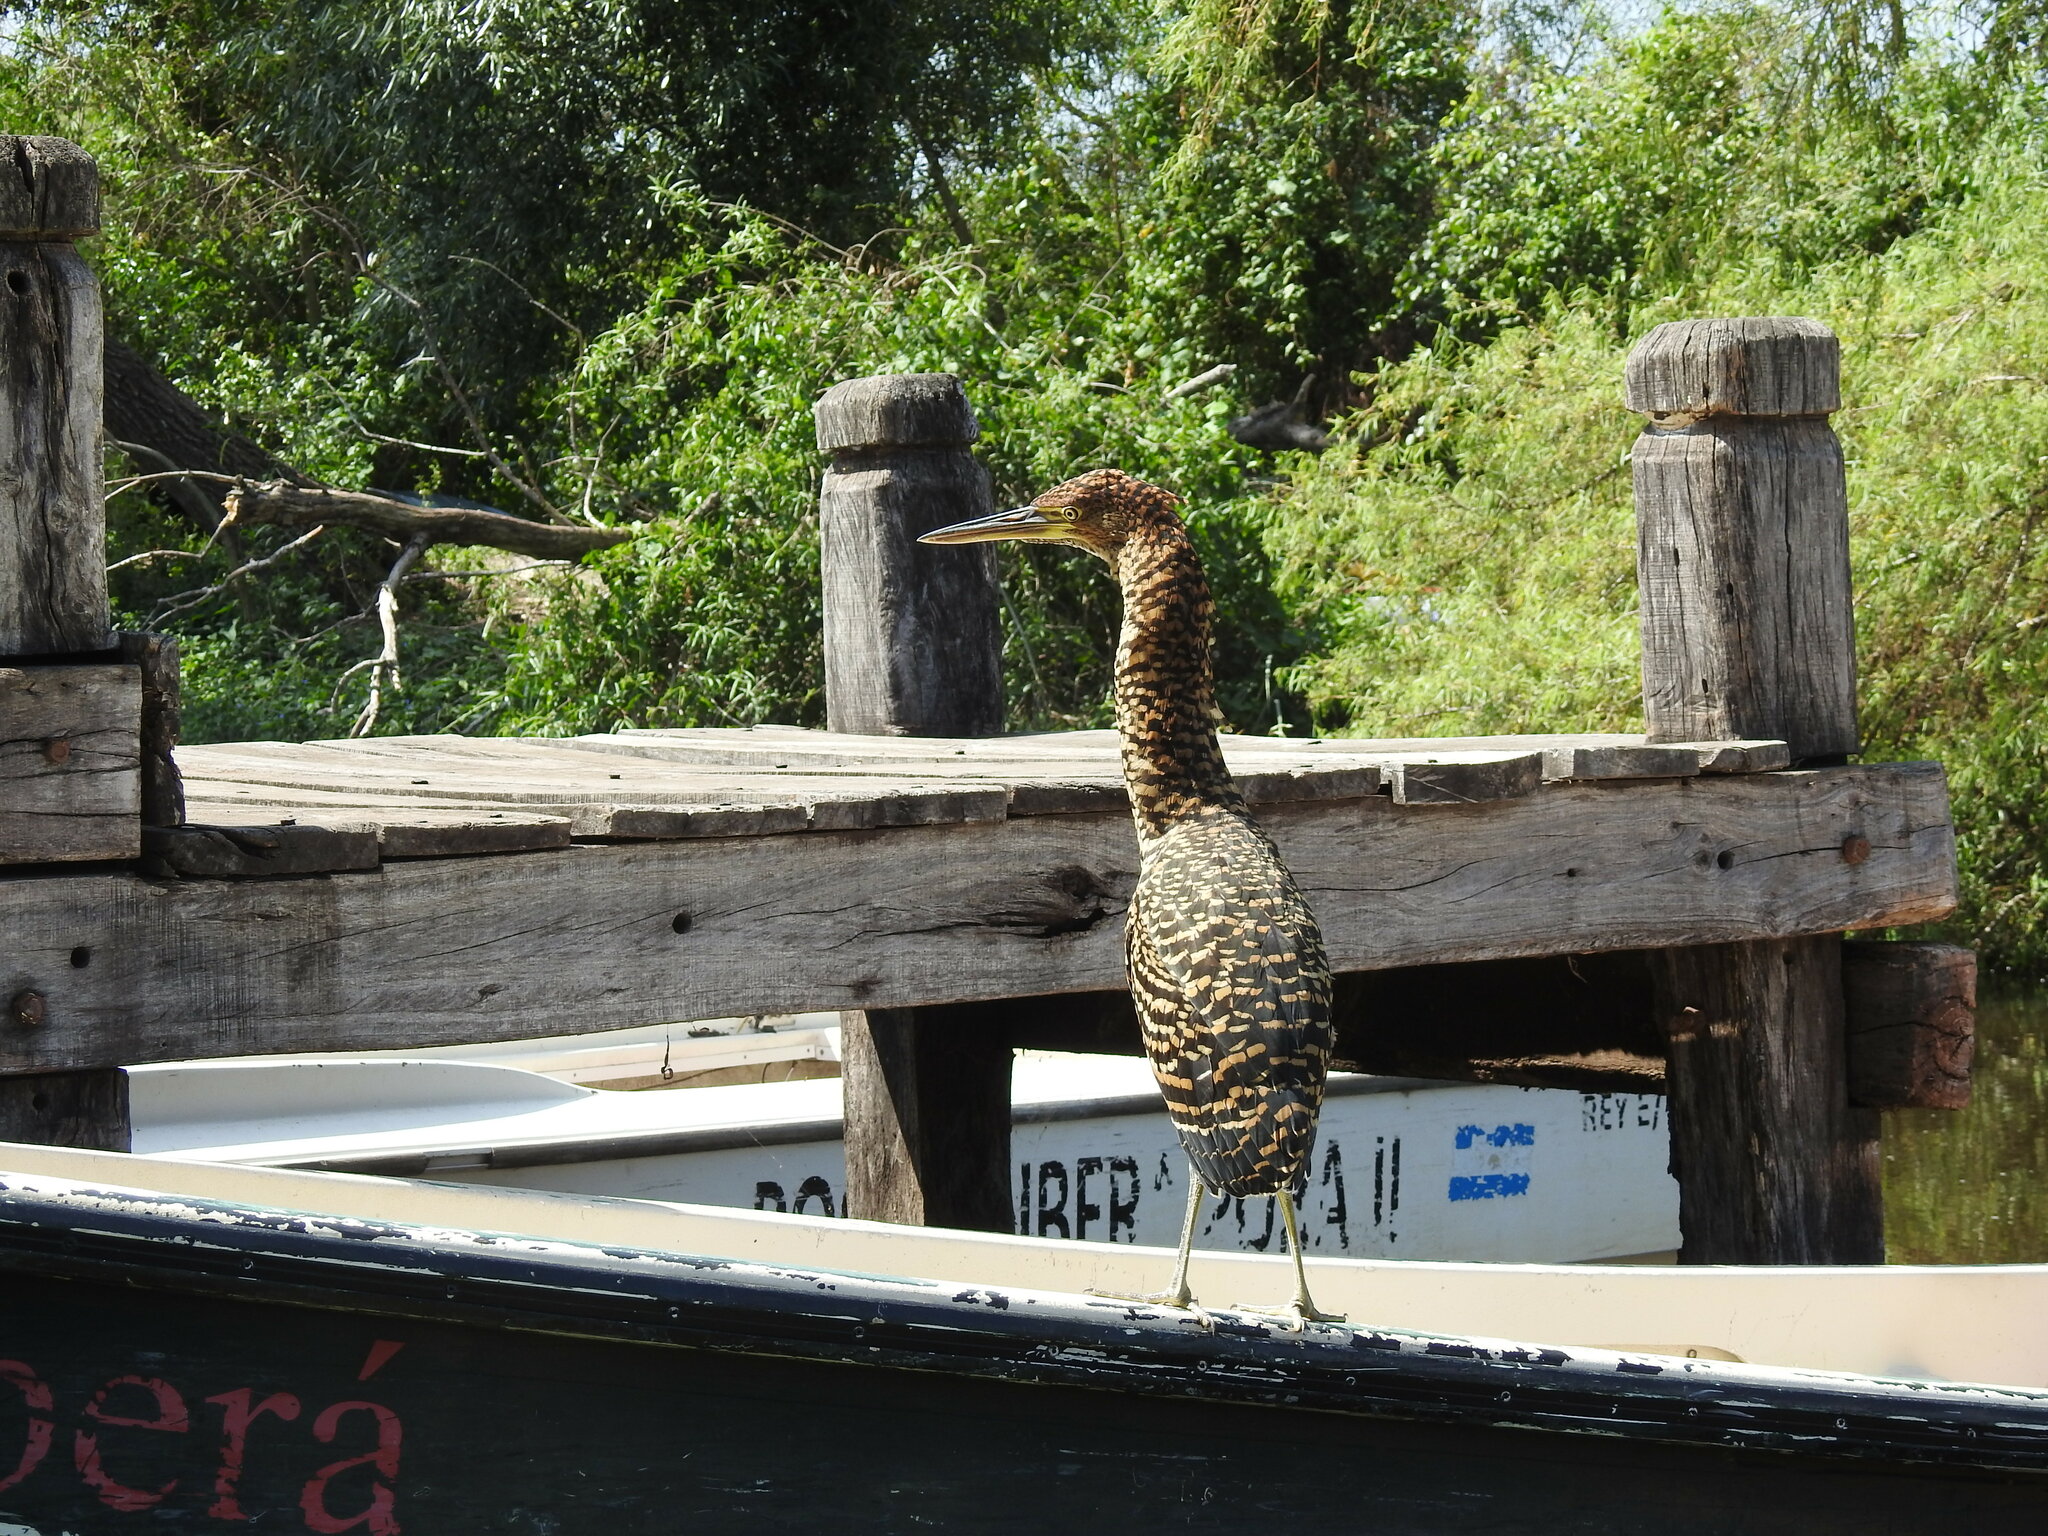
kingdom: Animalia
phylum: Chordata
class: Aves
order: Pelecaniformes
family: Ardeidae
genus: Tigrisoma
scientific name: Tigrisoma lineatum
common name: Rufescent tiger-heron
